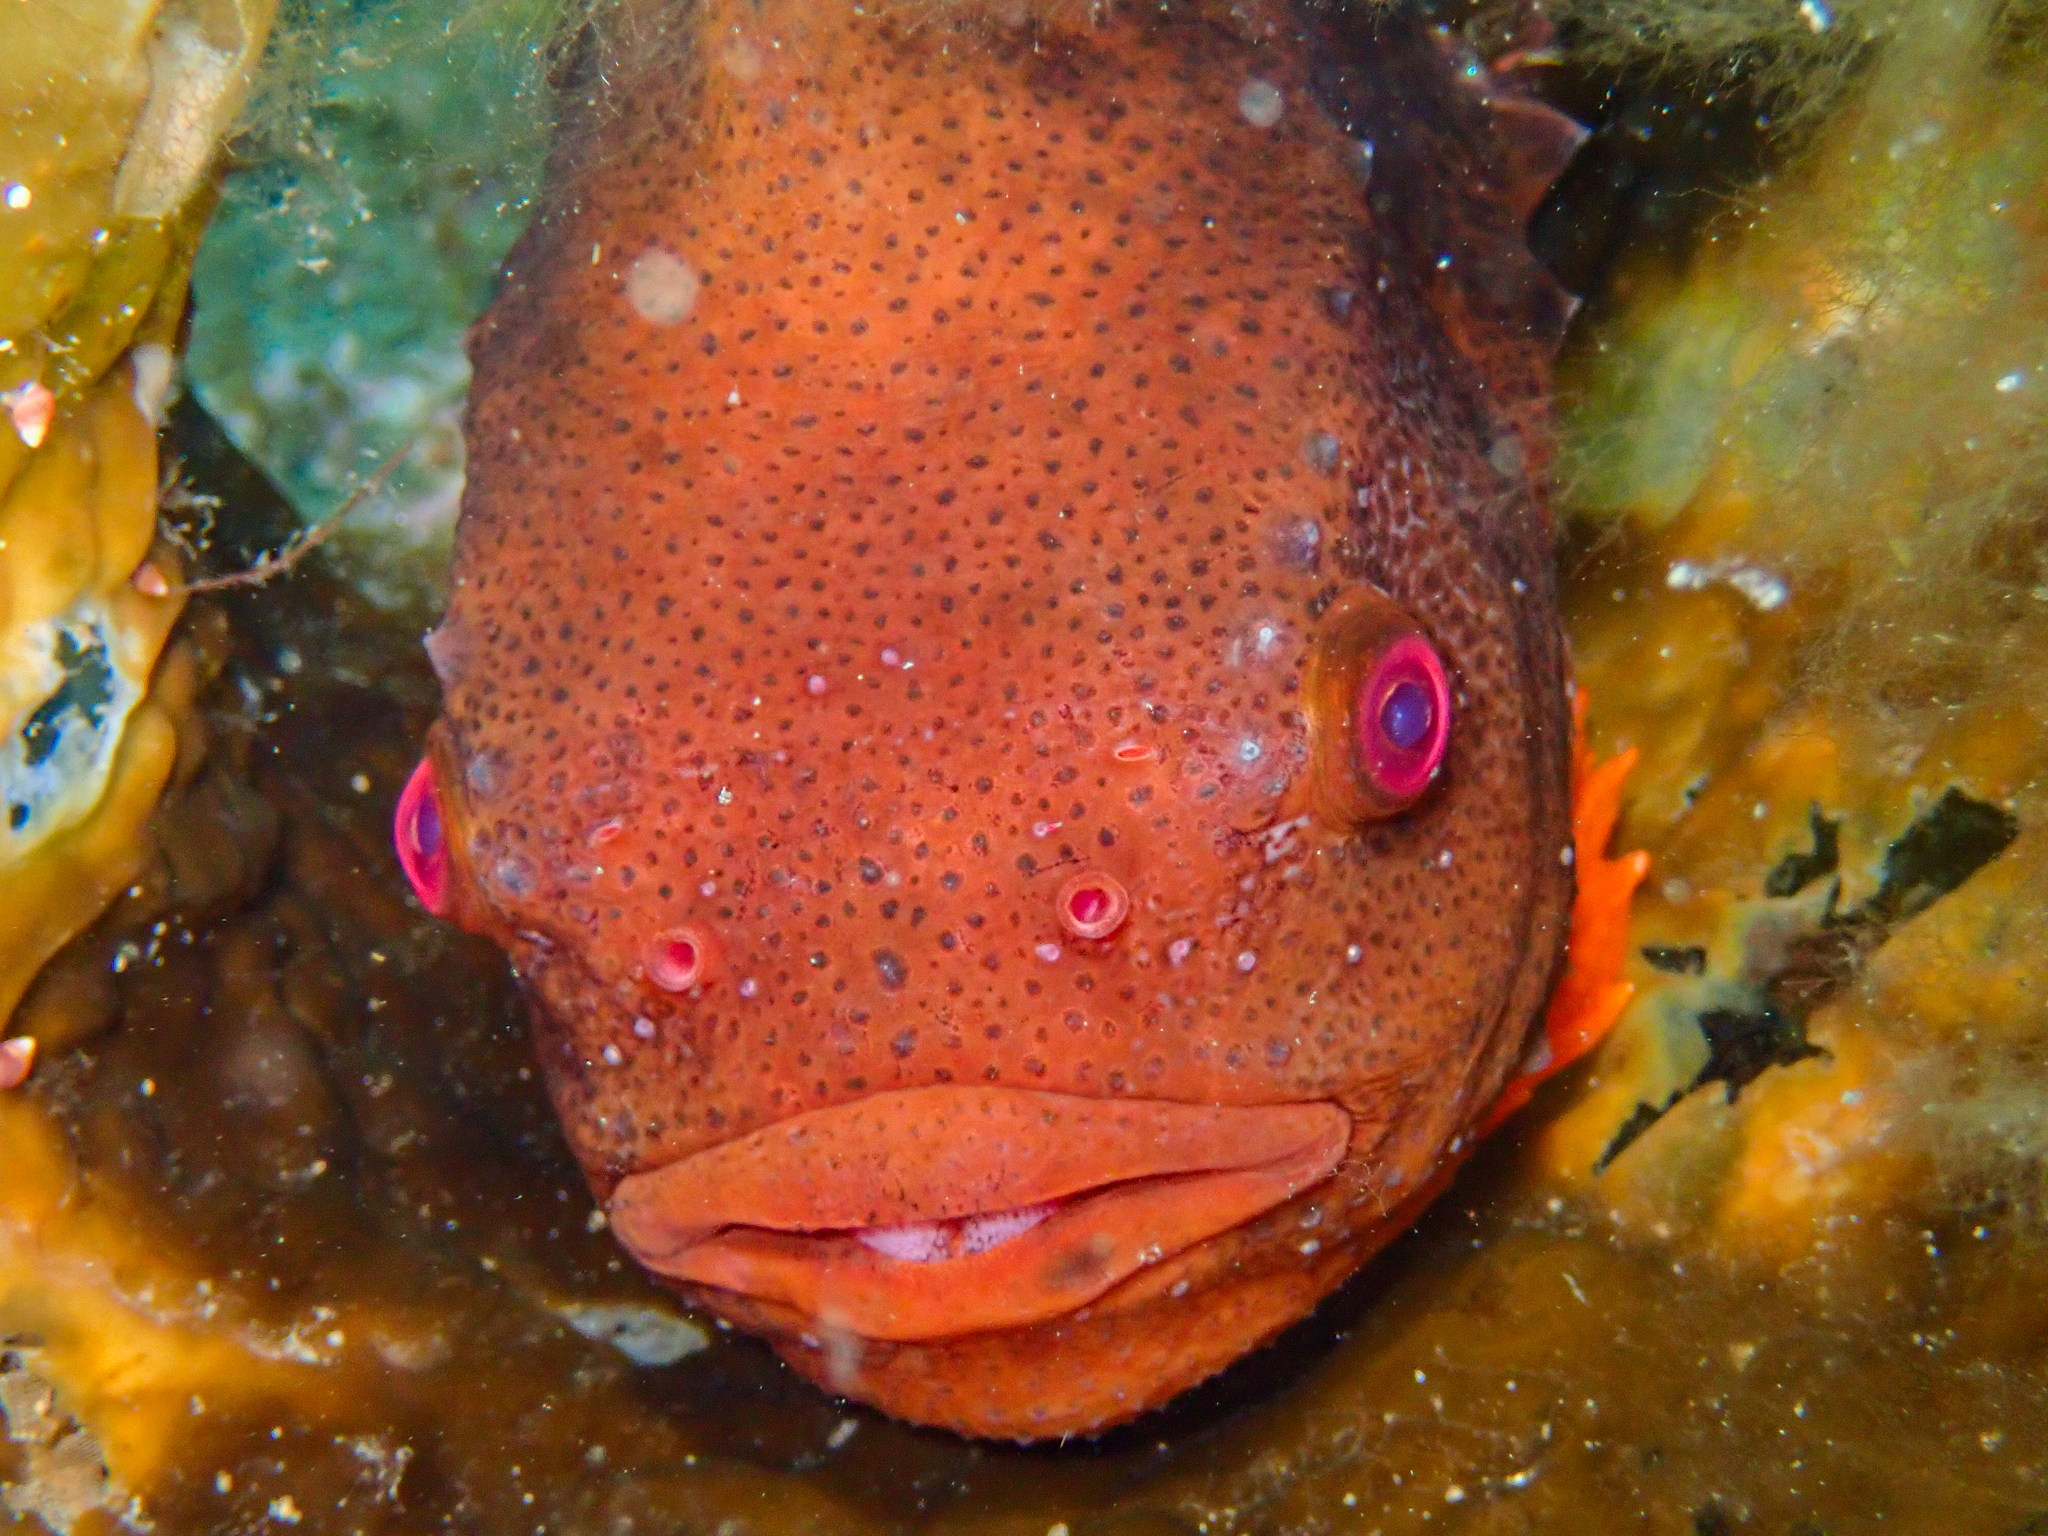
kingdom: Animalia
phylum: Chordata
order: Scorpaeniformes
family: Cyclopteridae
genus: Cyclopterus
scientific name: Cyclopterus lumpus
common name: Lumpsucker
